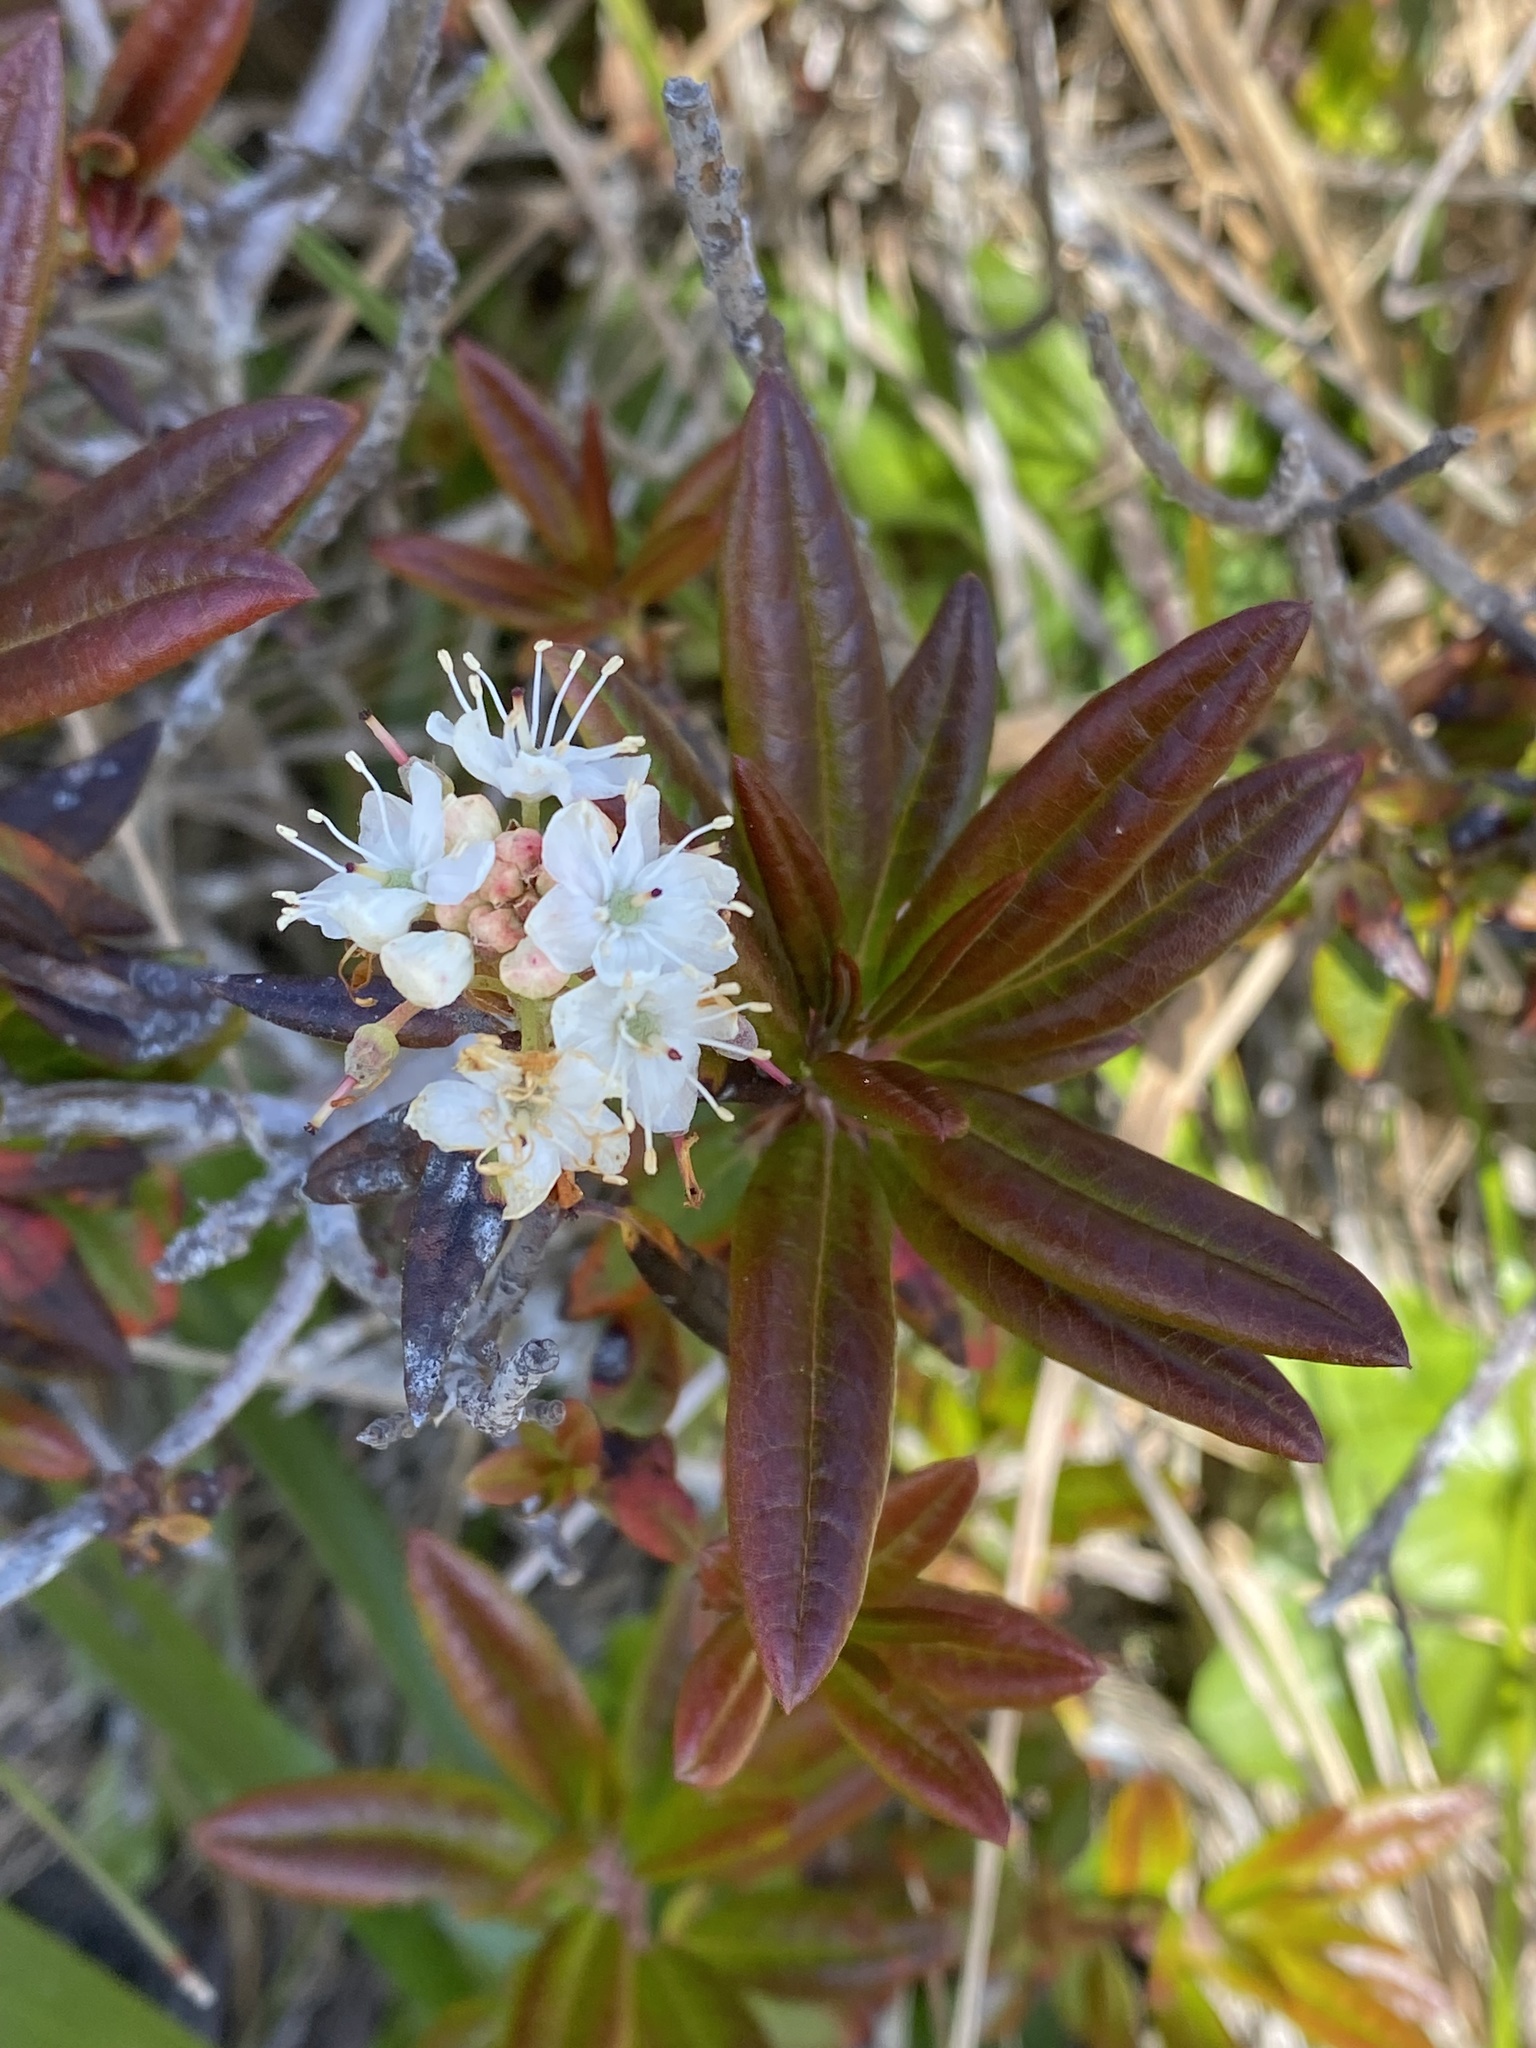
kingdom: Plantae
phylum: Tracheophyta
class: Magnoliopsida
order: Ericales
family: Ericaceae
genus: Rhododendron
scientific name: Rhododendron columbianum
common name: Western labrador tea
